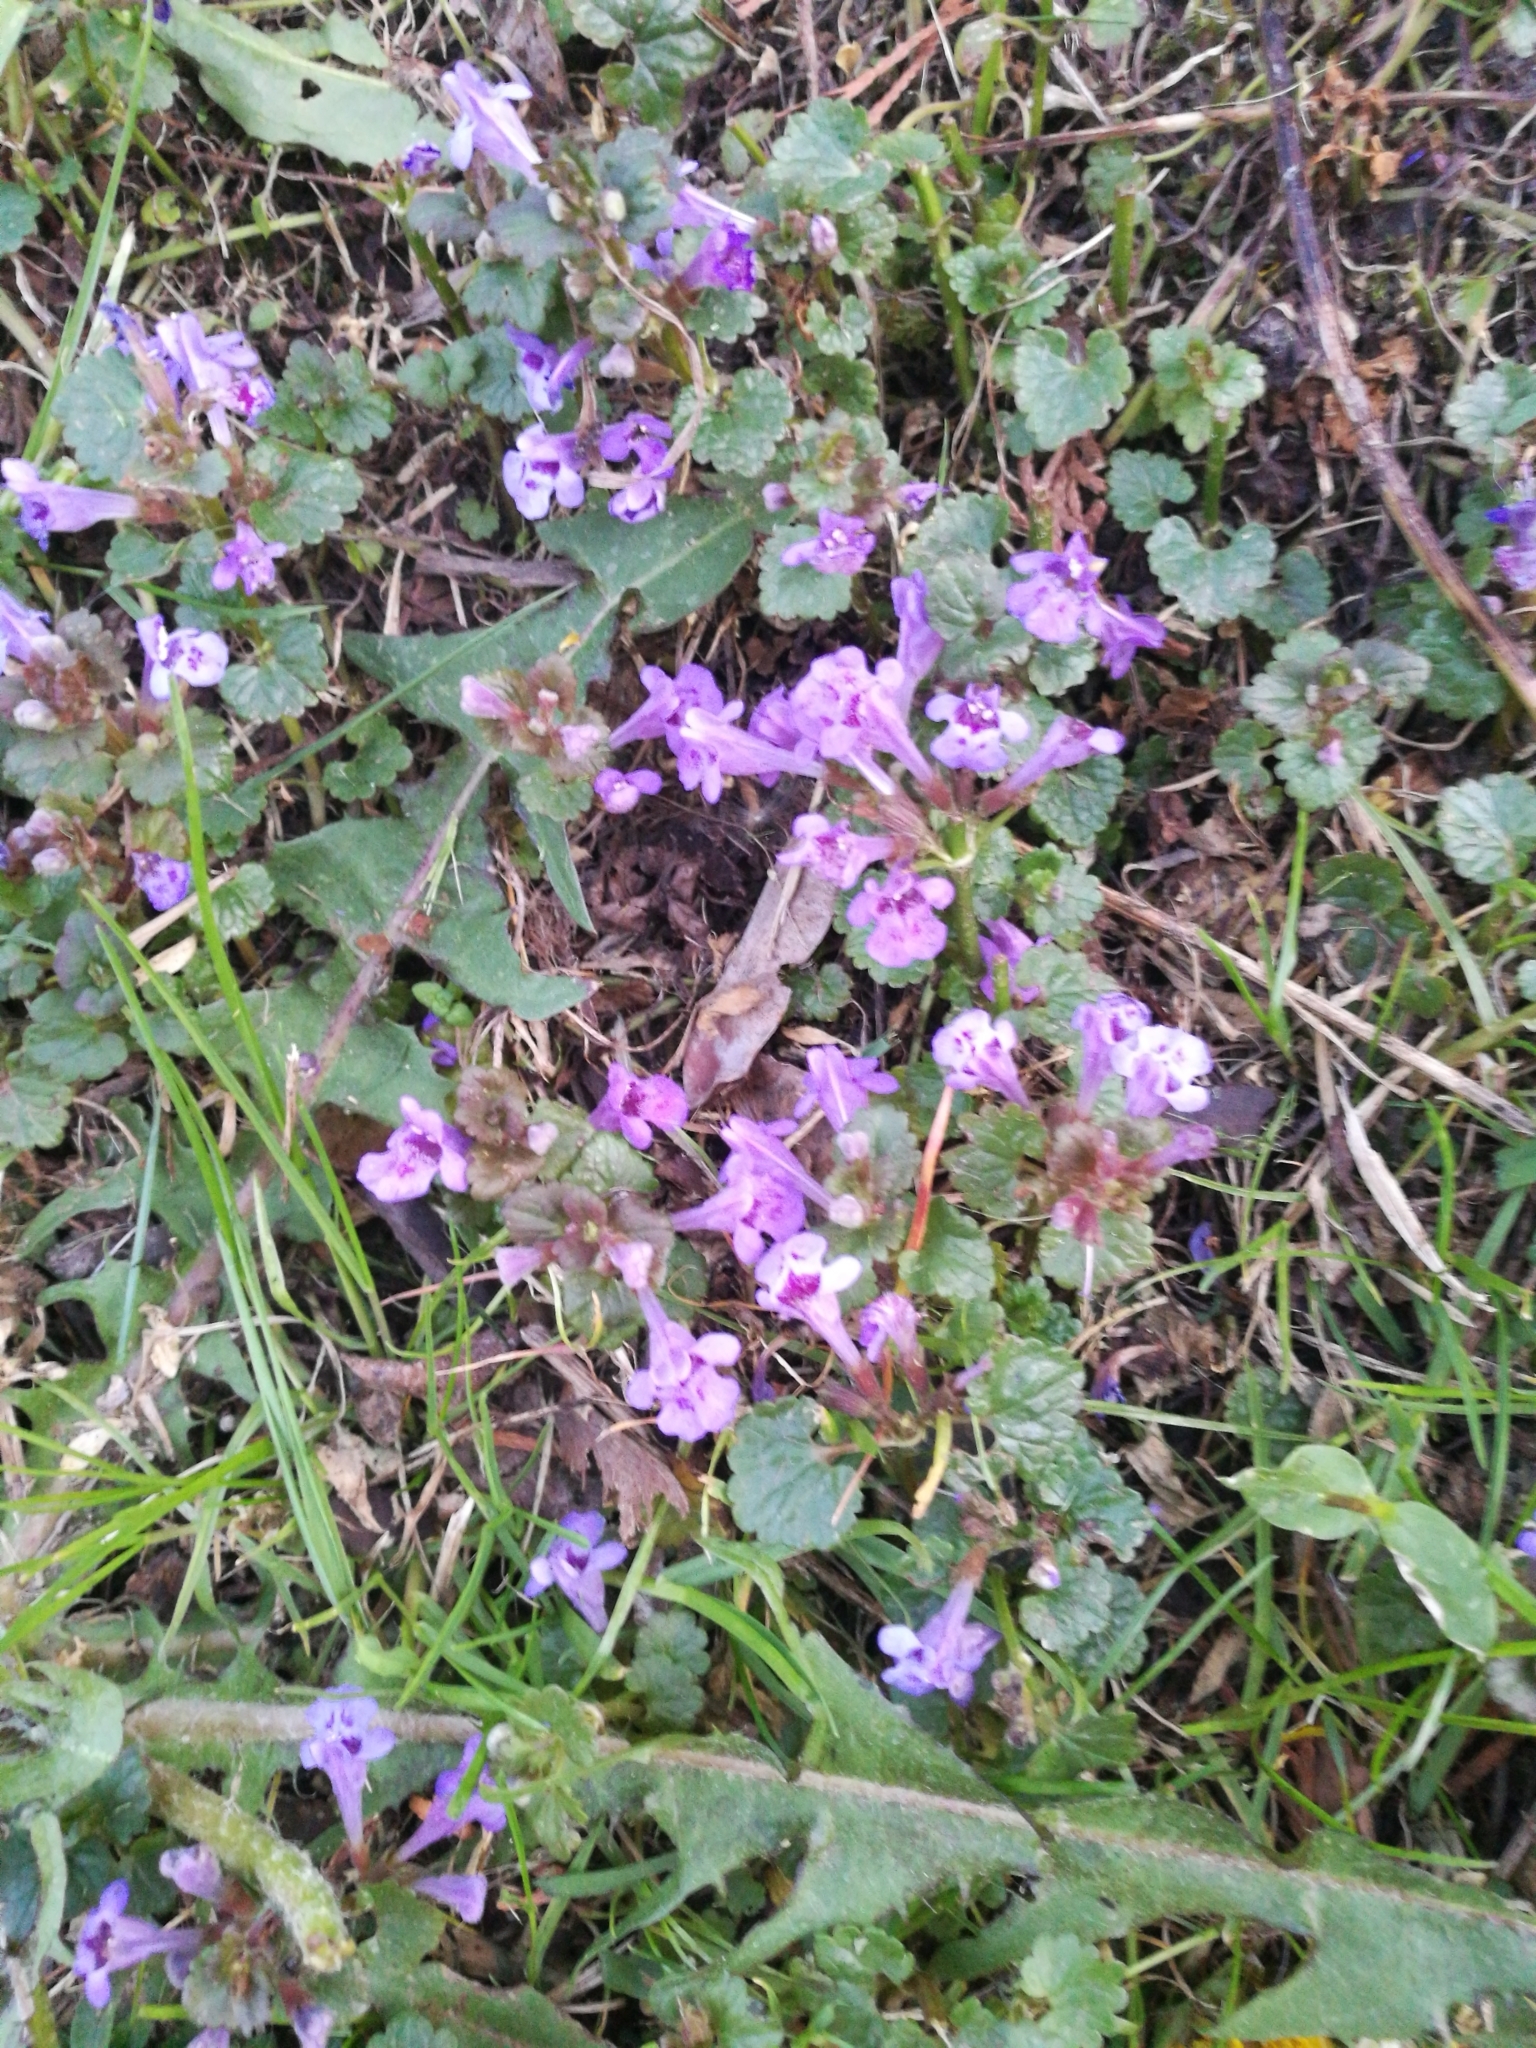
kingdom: Plantae
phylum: Tracheophyta
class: Magnoliopsida
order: Lamiales
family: Lamiaceae
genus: Glechoma
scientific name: Glechoma hederacea
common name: Ground ivy
